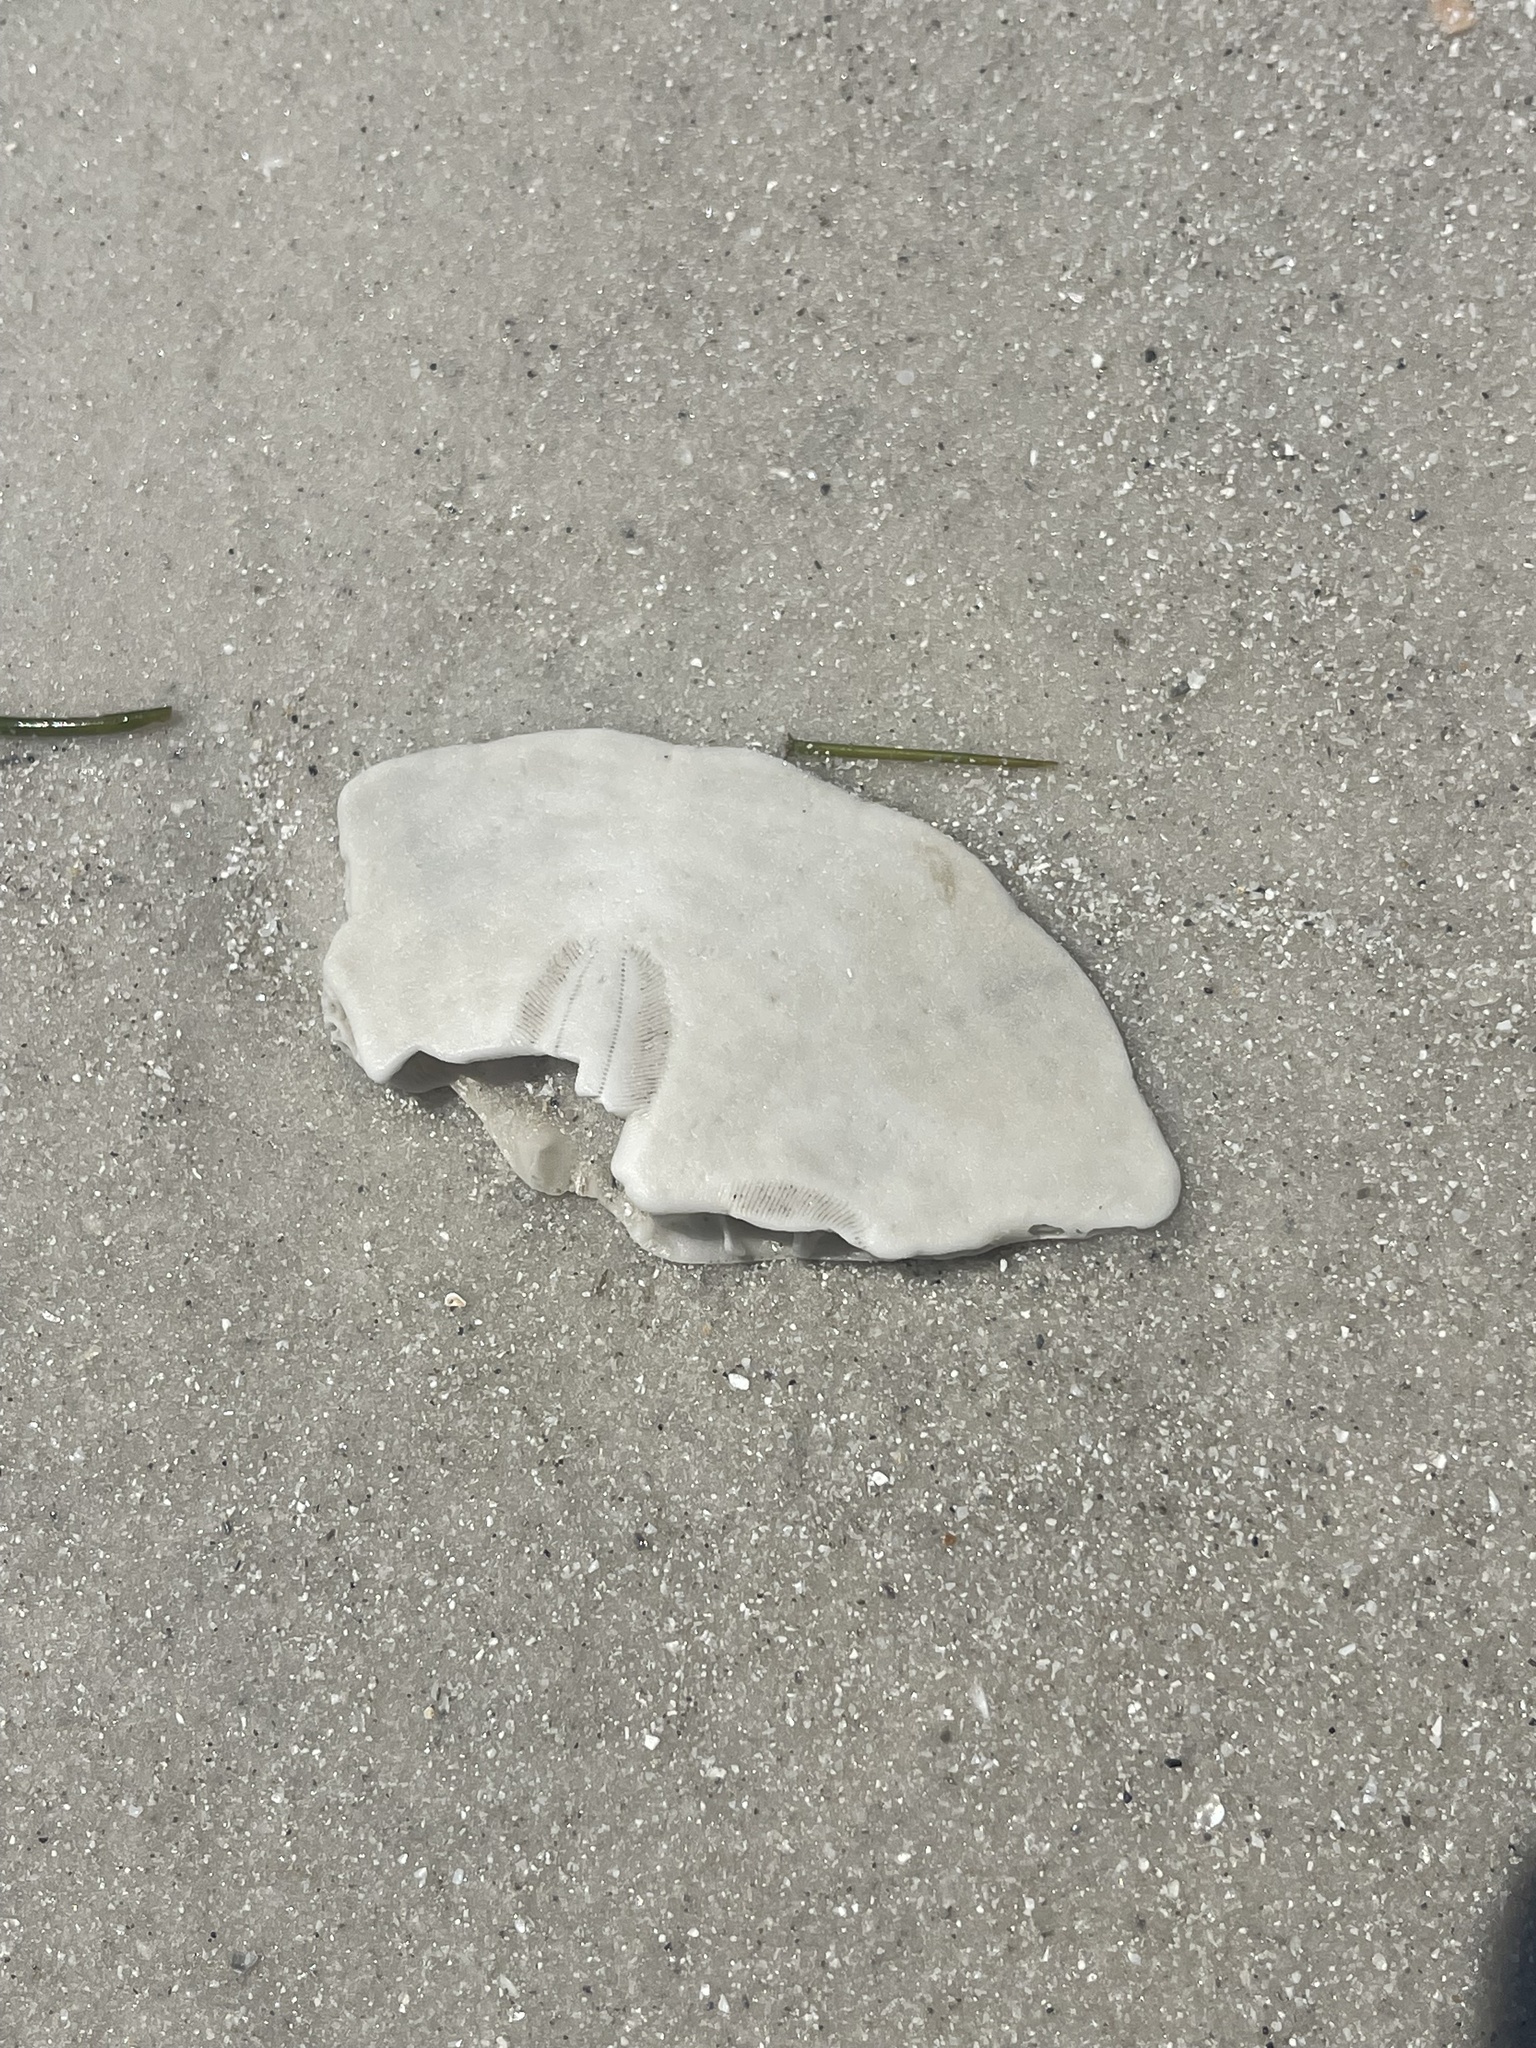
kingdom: Animalia
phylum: Echinodermata
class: Echinoidea
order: Echinolampadacea
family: Mellitidae
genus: Mellita
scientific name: Mellita quinquiesperforata
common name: Sand dollar
